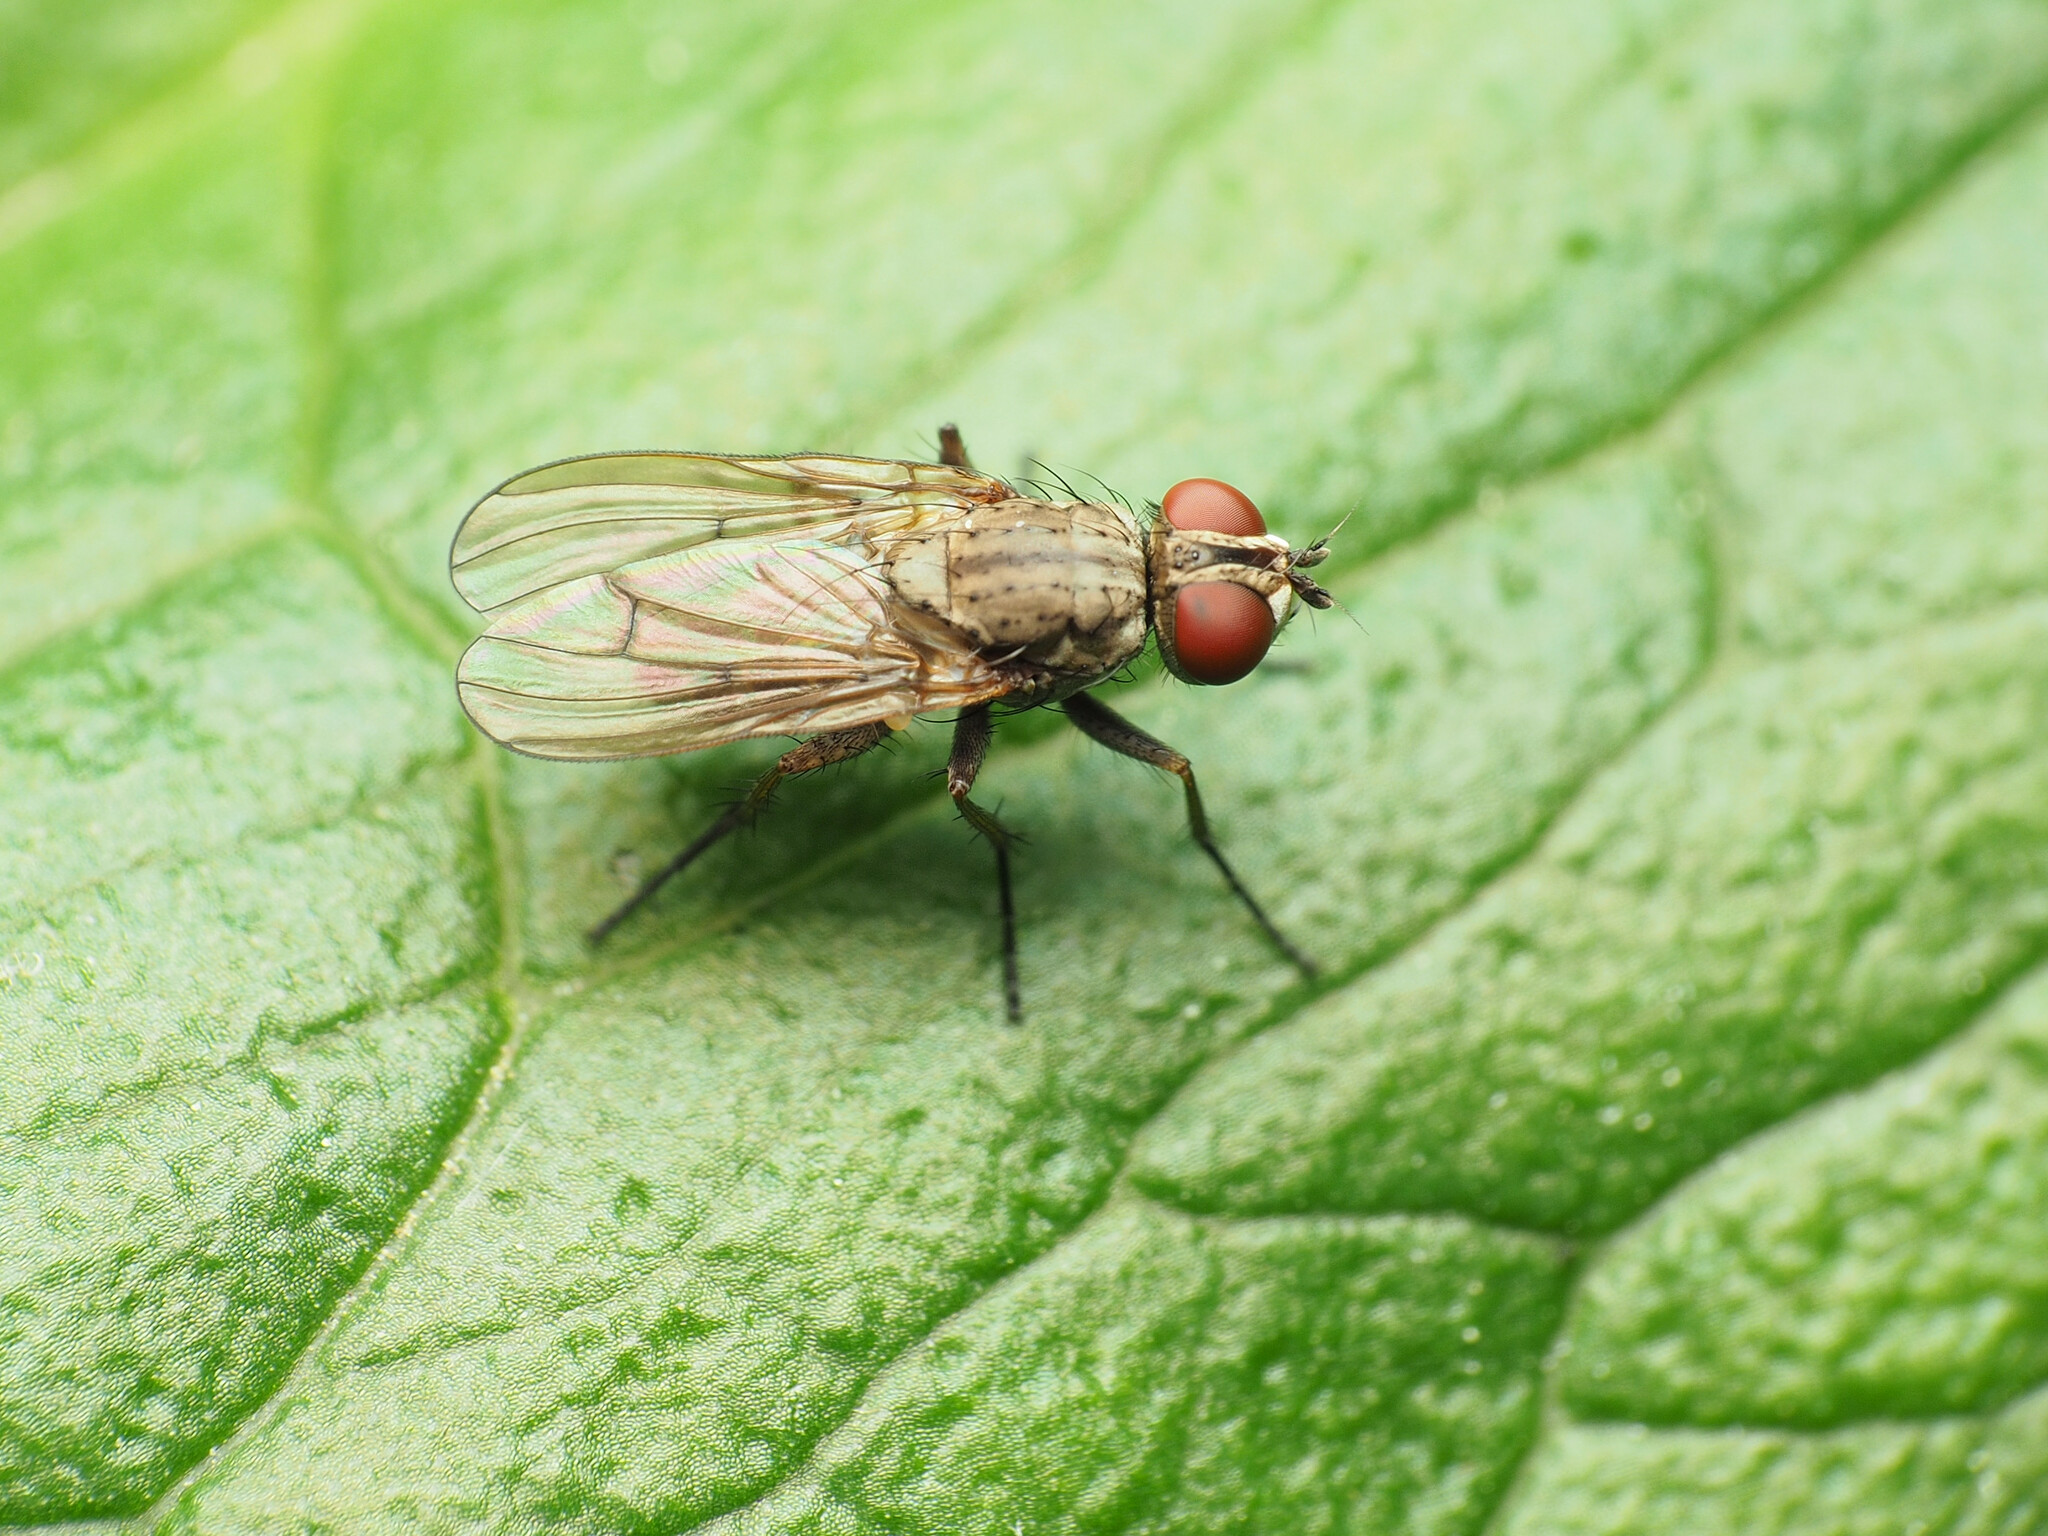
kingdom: Animalia
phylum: Arthropoda
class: Insecta
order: Diptera
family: Anthomyiidae
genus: Leucophora
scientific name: Leucophora johnsoni
